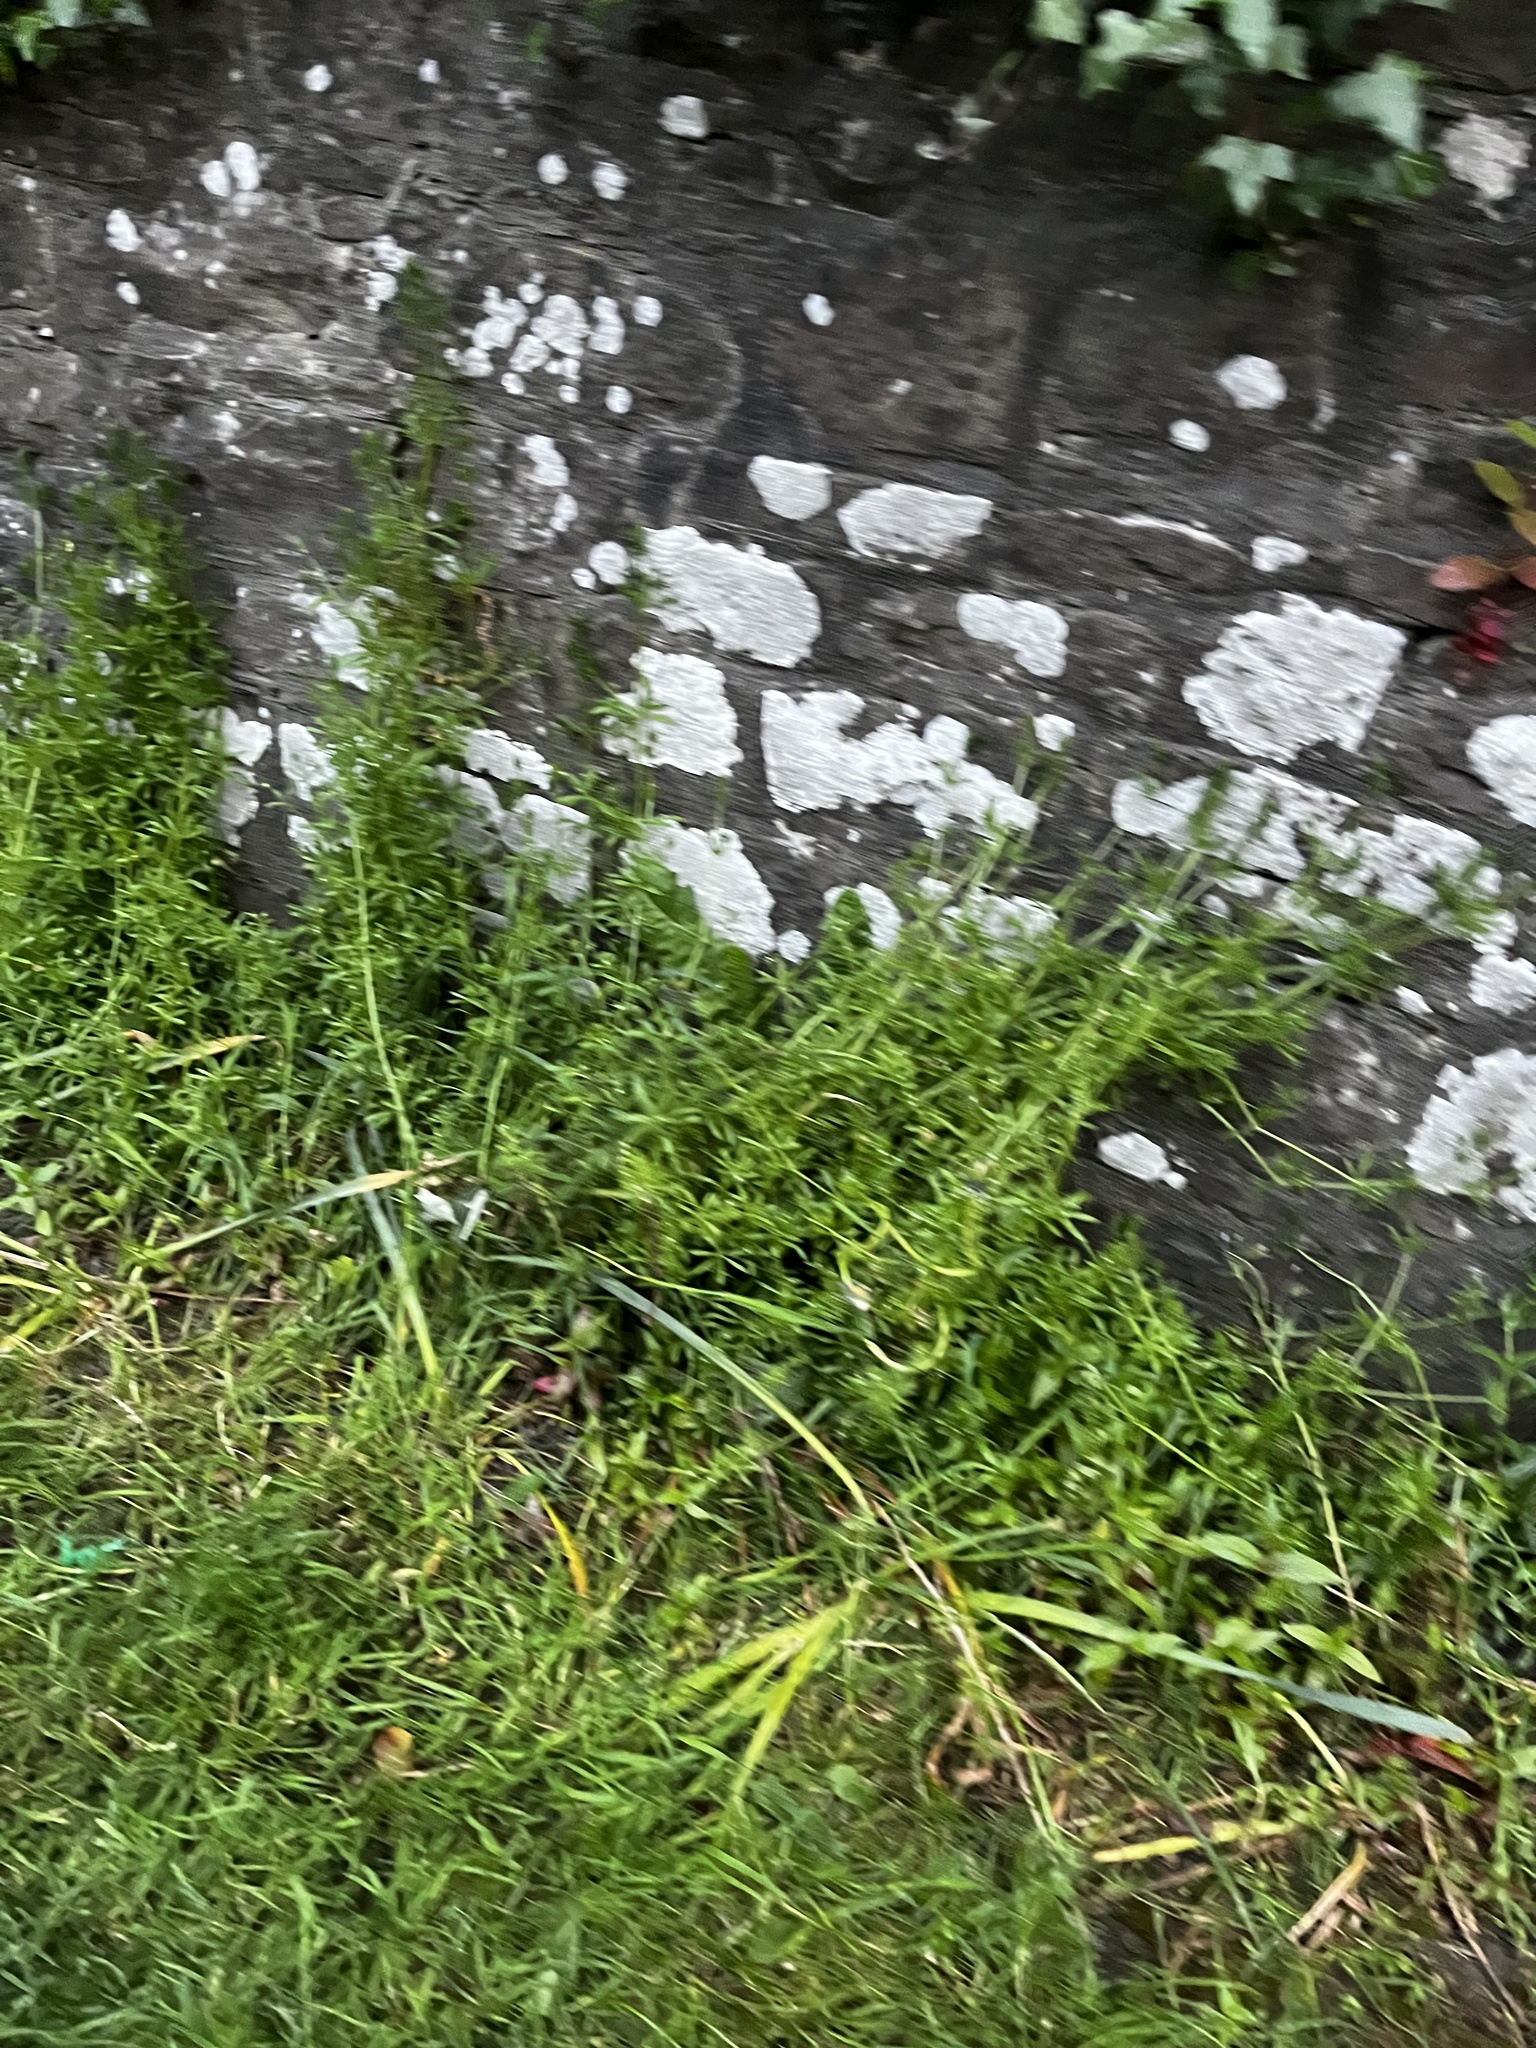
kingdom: Plantae
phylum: Tracheophyta
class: Magnoliopsida
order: Gentianales
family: Rubiaceae
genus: Galium
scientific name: Galium aparine
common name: Cleavers
